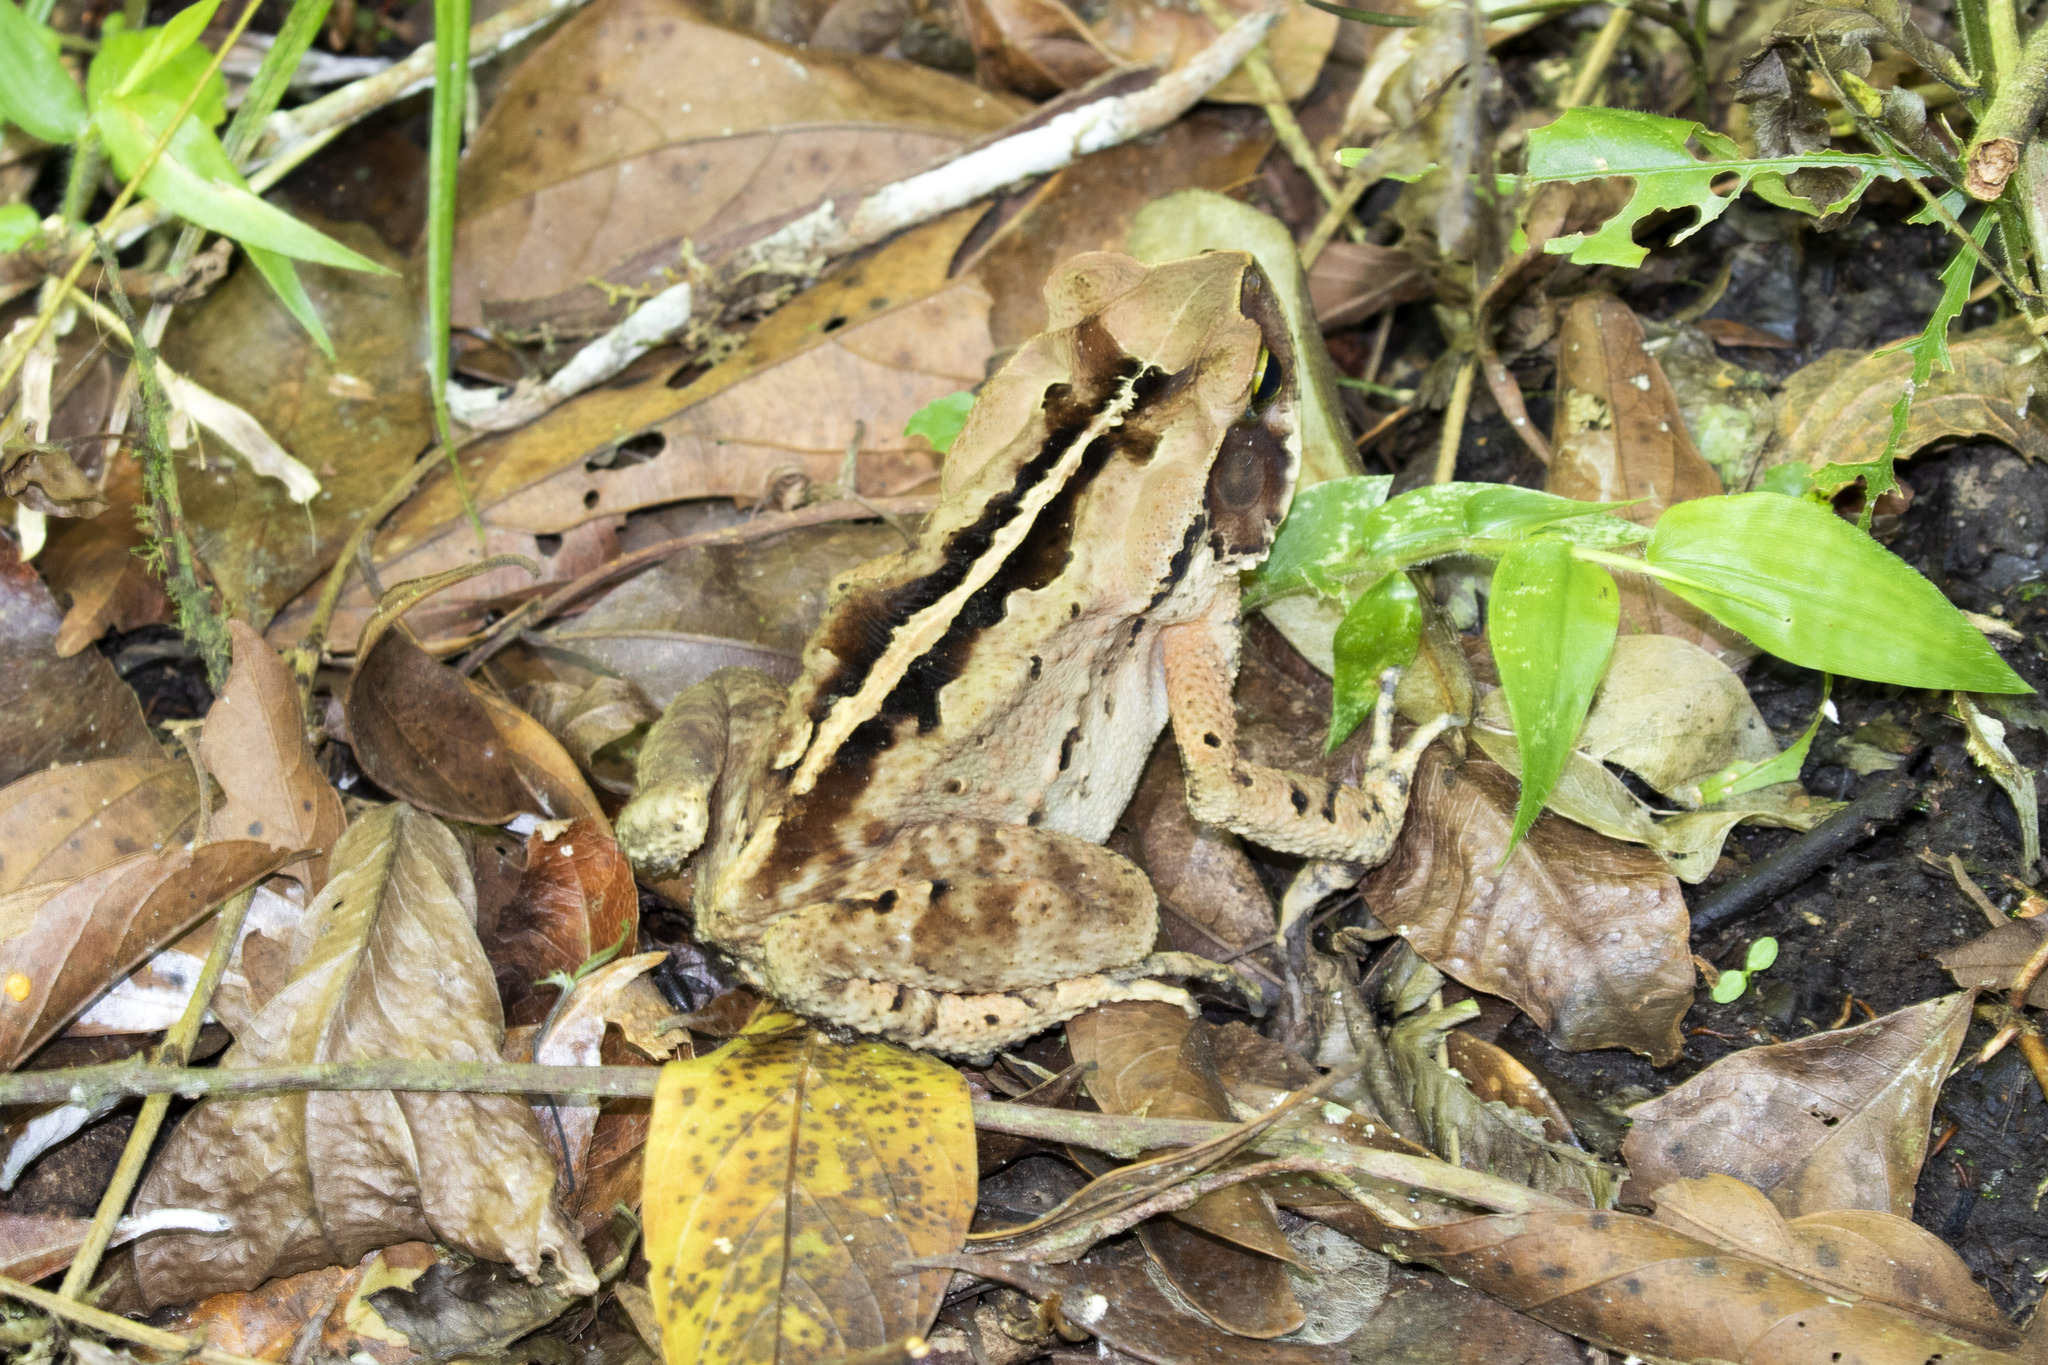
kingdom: Animalia
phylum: Chordata
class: Amphibia
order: Anura
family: Bufonidae
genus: Rhinella
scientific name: Rhinella ornata
